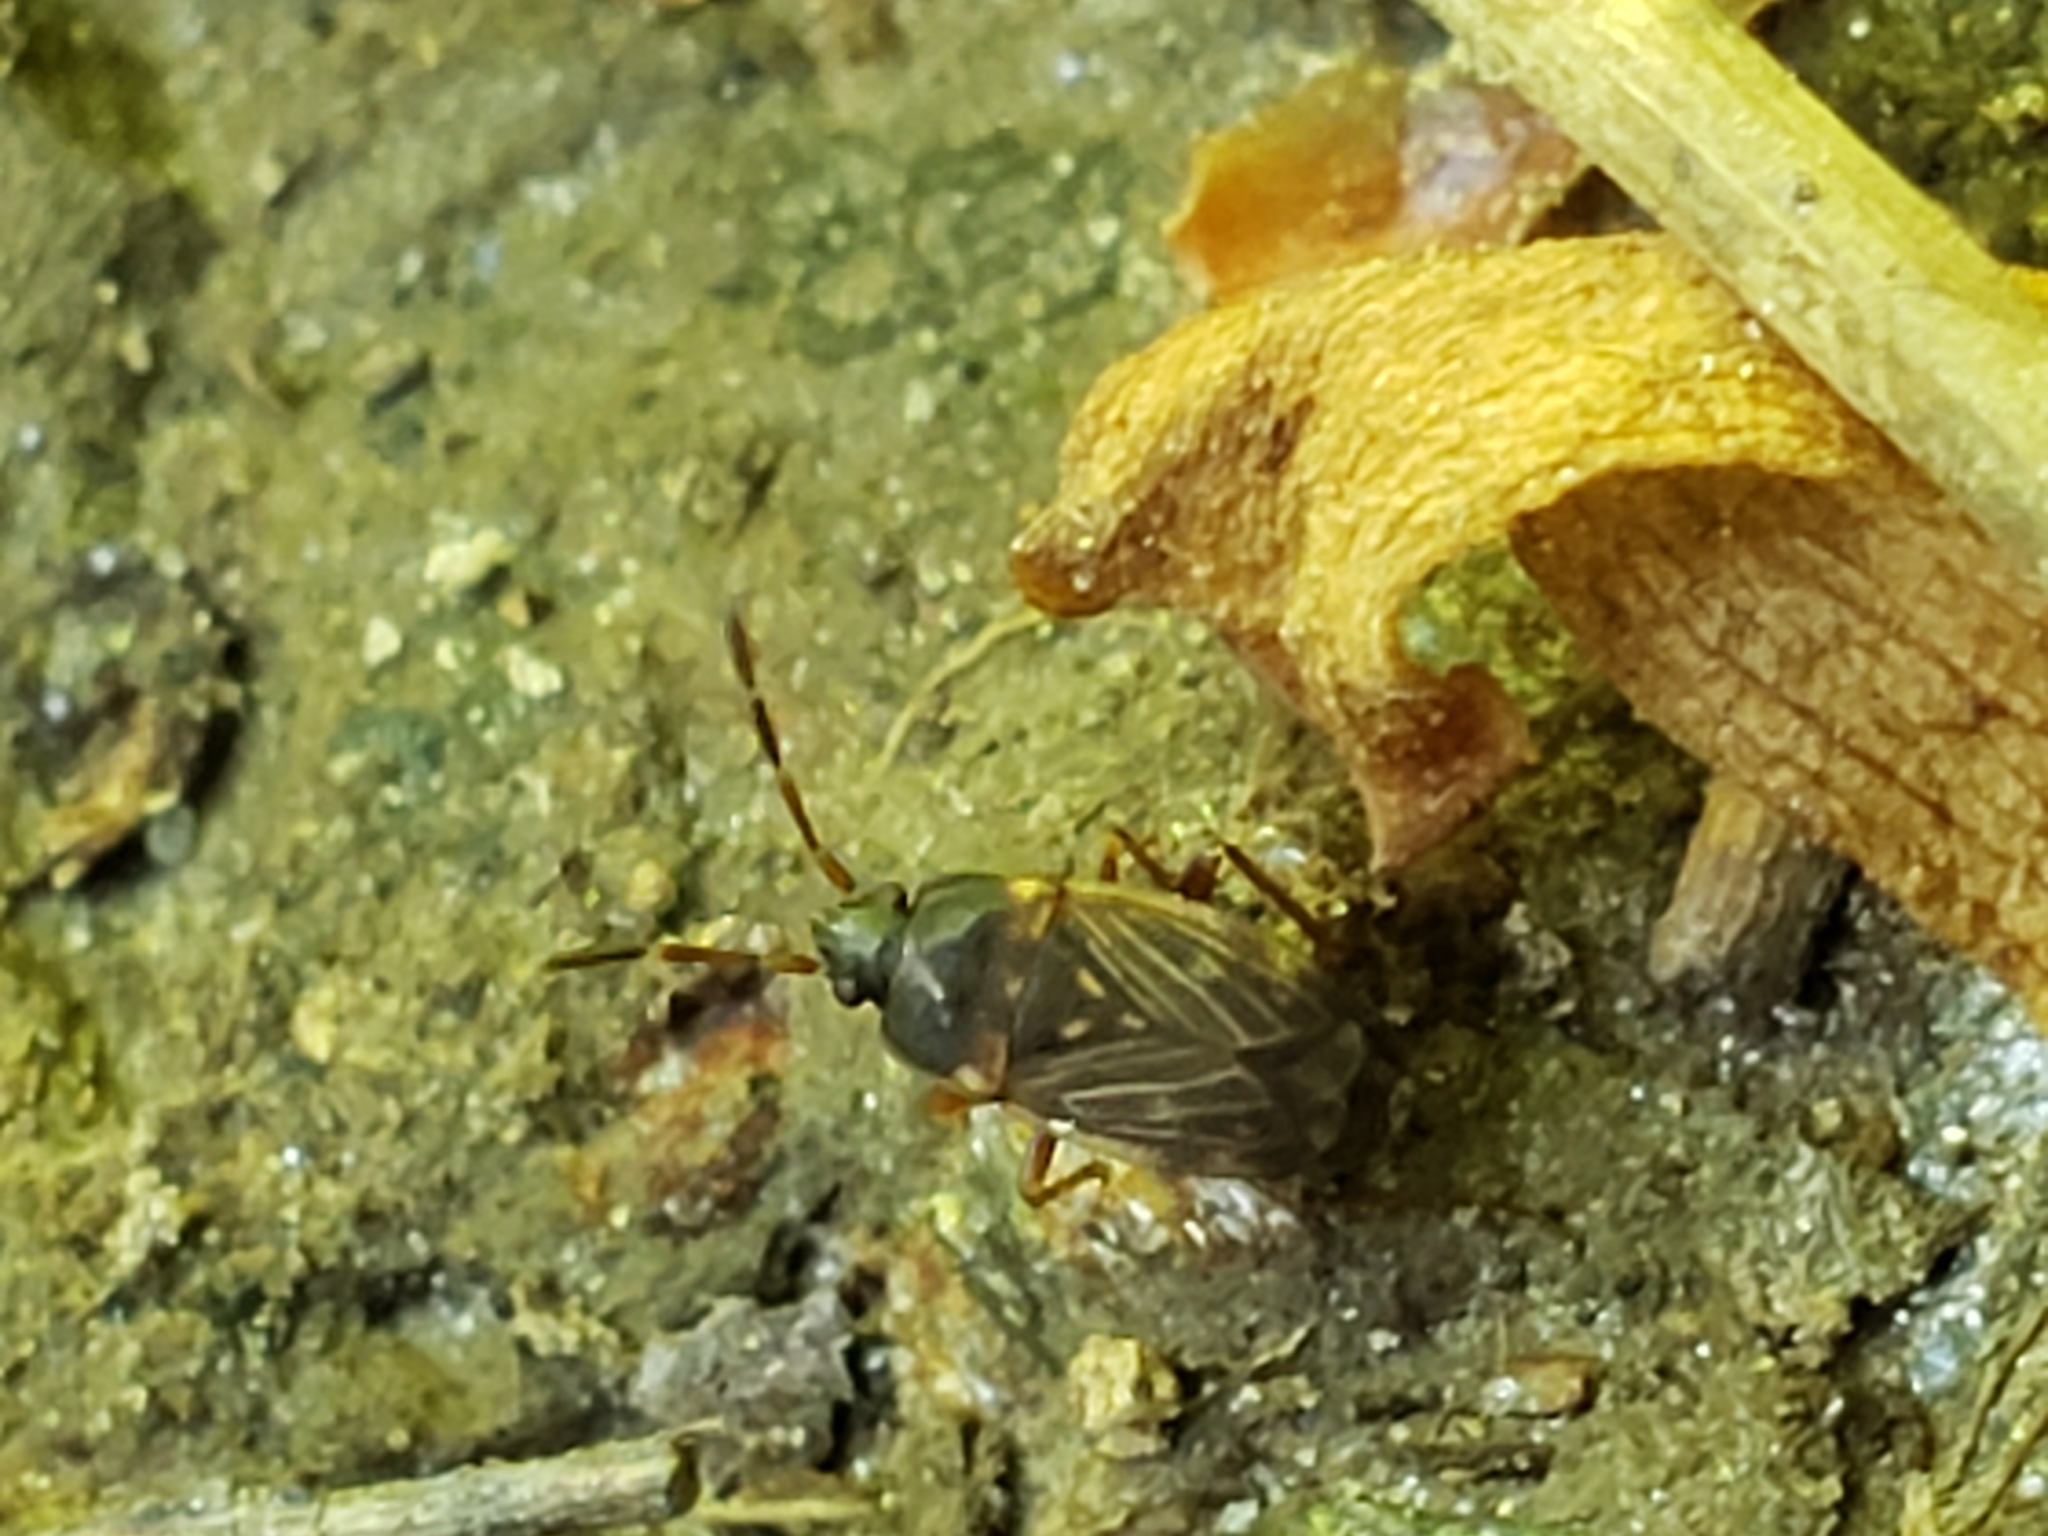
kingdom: Animalia
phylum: Arthropoda
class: Insecta
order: Hemiptera
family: Rhyparochromidae
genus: Cryphula
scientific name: Cryphula trimaculata
